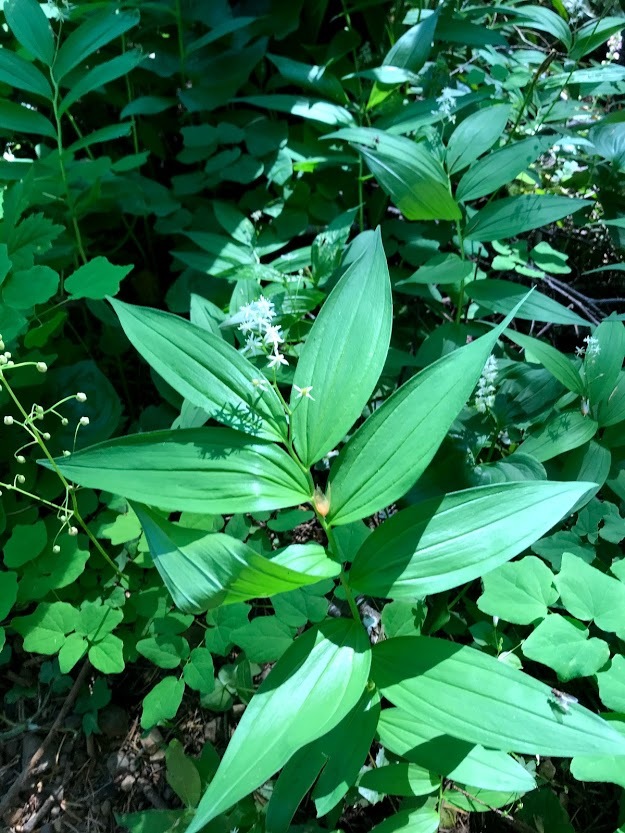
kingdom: Plantae
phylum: Tracheophyta
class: Liliopsida
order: Asparagales
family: Asparagaceae
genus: Maianthemum
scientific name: Maianthemum stellatum
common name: Little false solomon's seal
